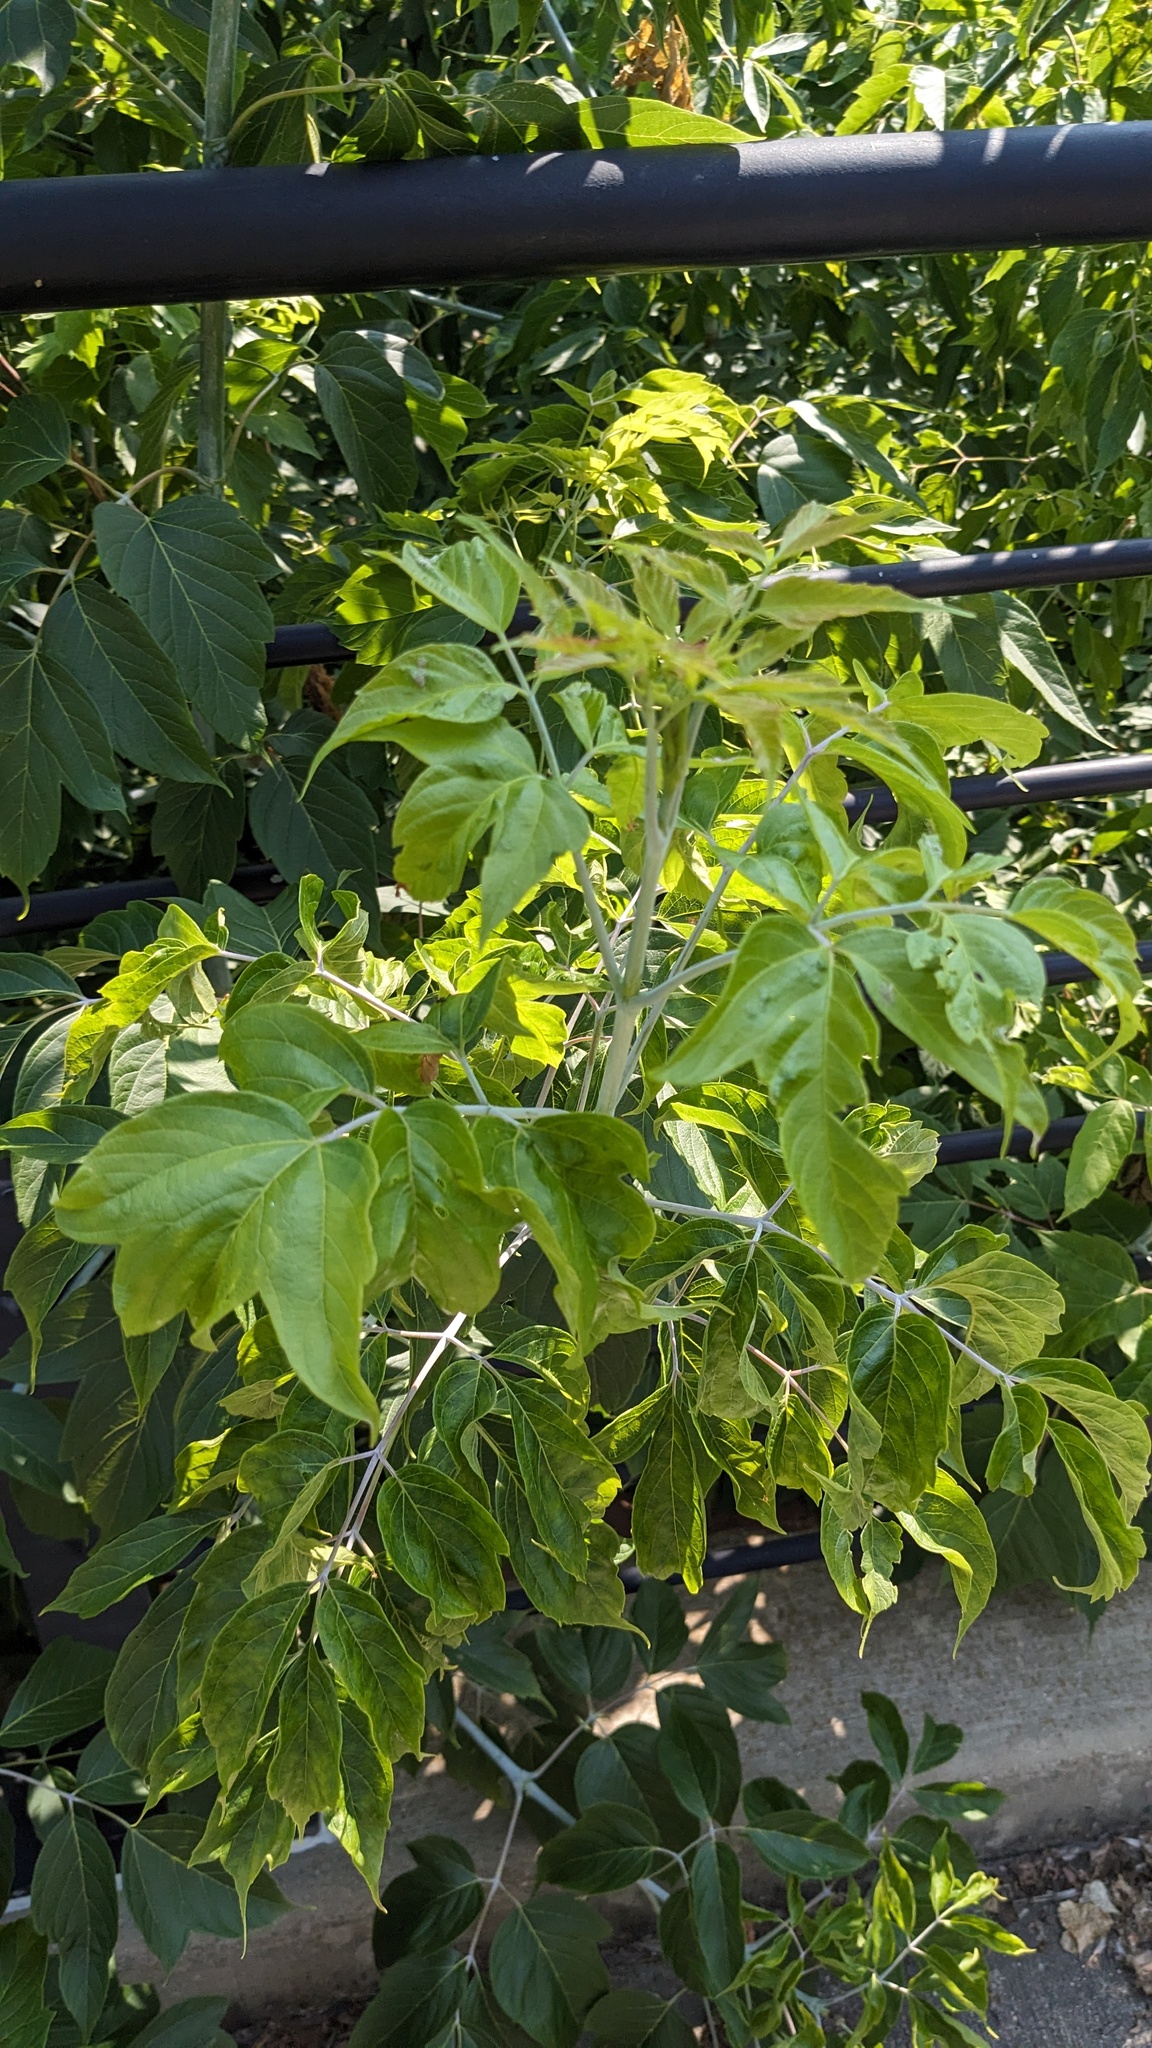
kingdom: Plantae
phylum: Tracheophyta
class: Magnoliopsida
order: Sapindales
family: Sapindaceae
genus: Acer
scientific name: Acer negundo
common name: Ashleaf maple
